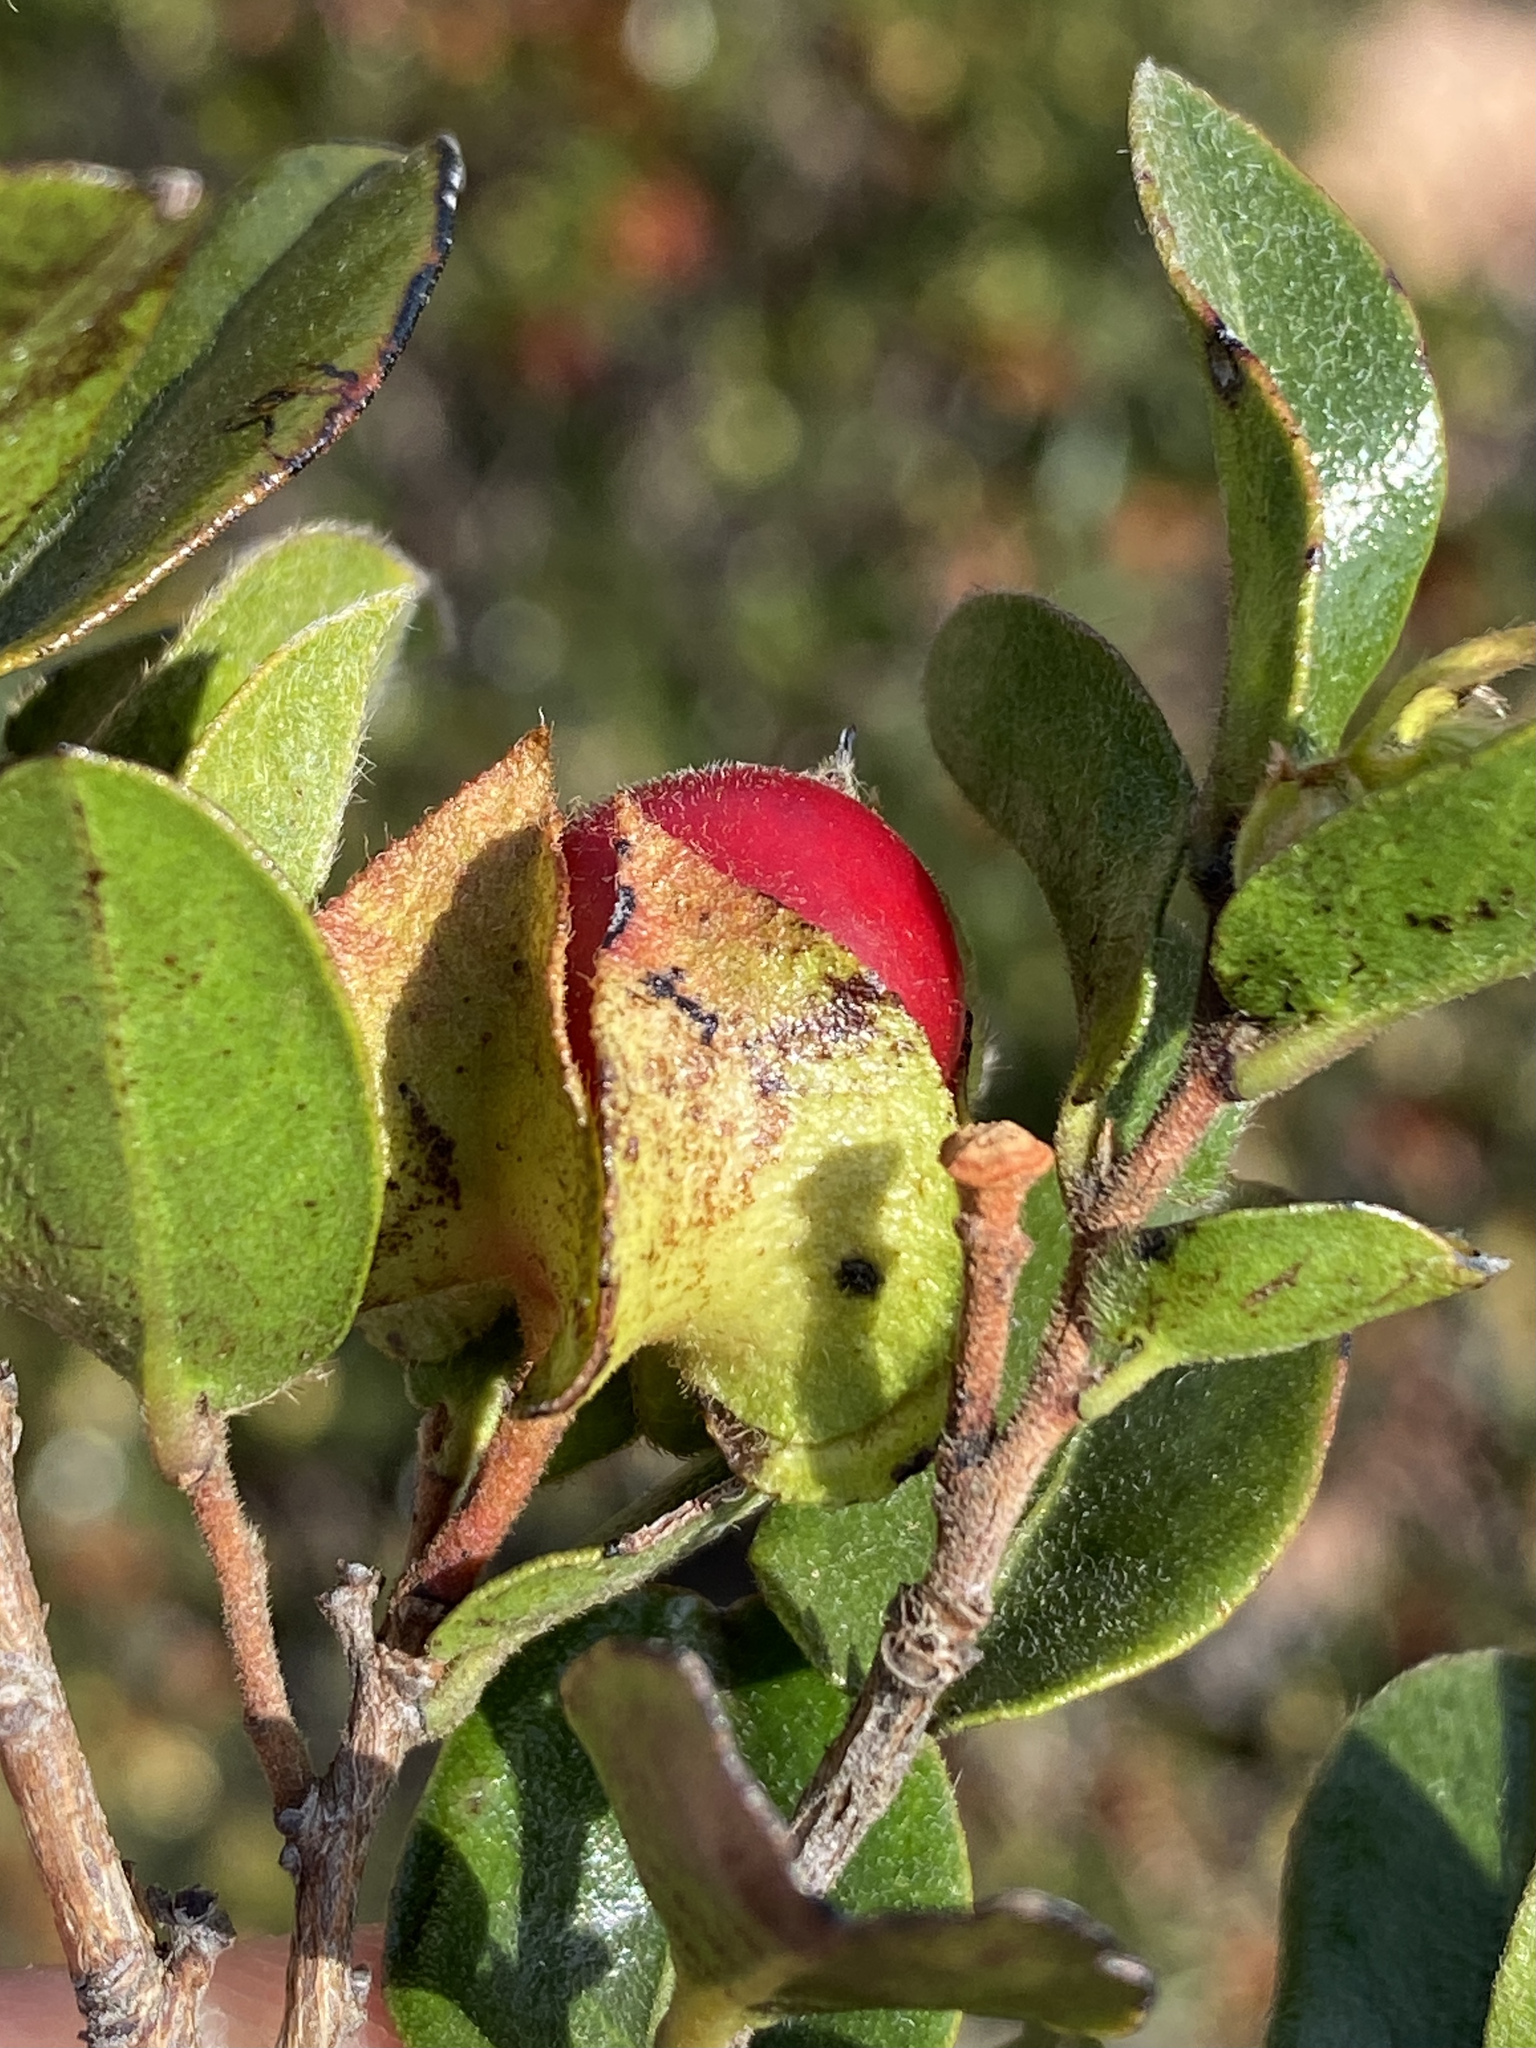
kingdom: Plantae
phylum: Tracheophyta
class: Magnoliopsida
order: Ericales
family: Ebenaceae
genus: Diospyros
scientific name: Diospyros scabrida
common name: Coastal bladder-nut
